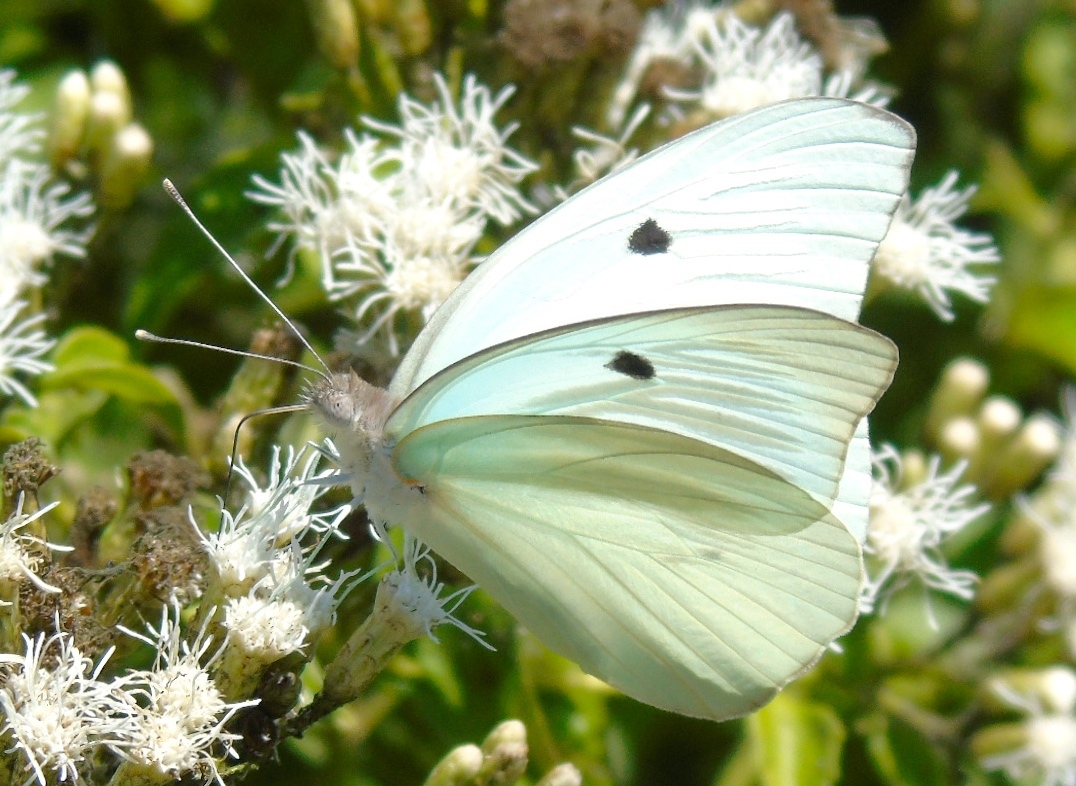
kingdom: Animalia
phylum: Arthropoda
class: Insecta
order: Lepidoptera
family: Pieridae
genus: Ganyra
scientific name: Ganyra josephina
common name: Giant white
